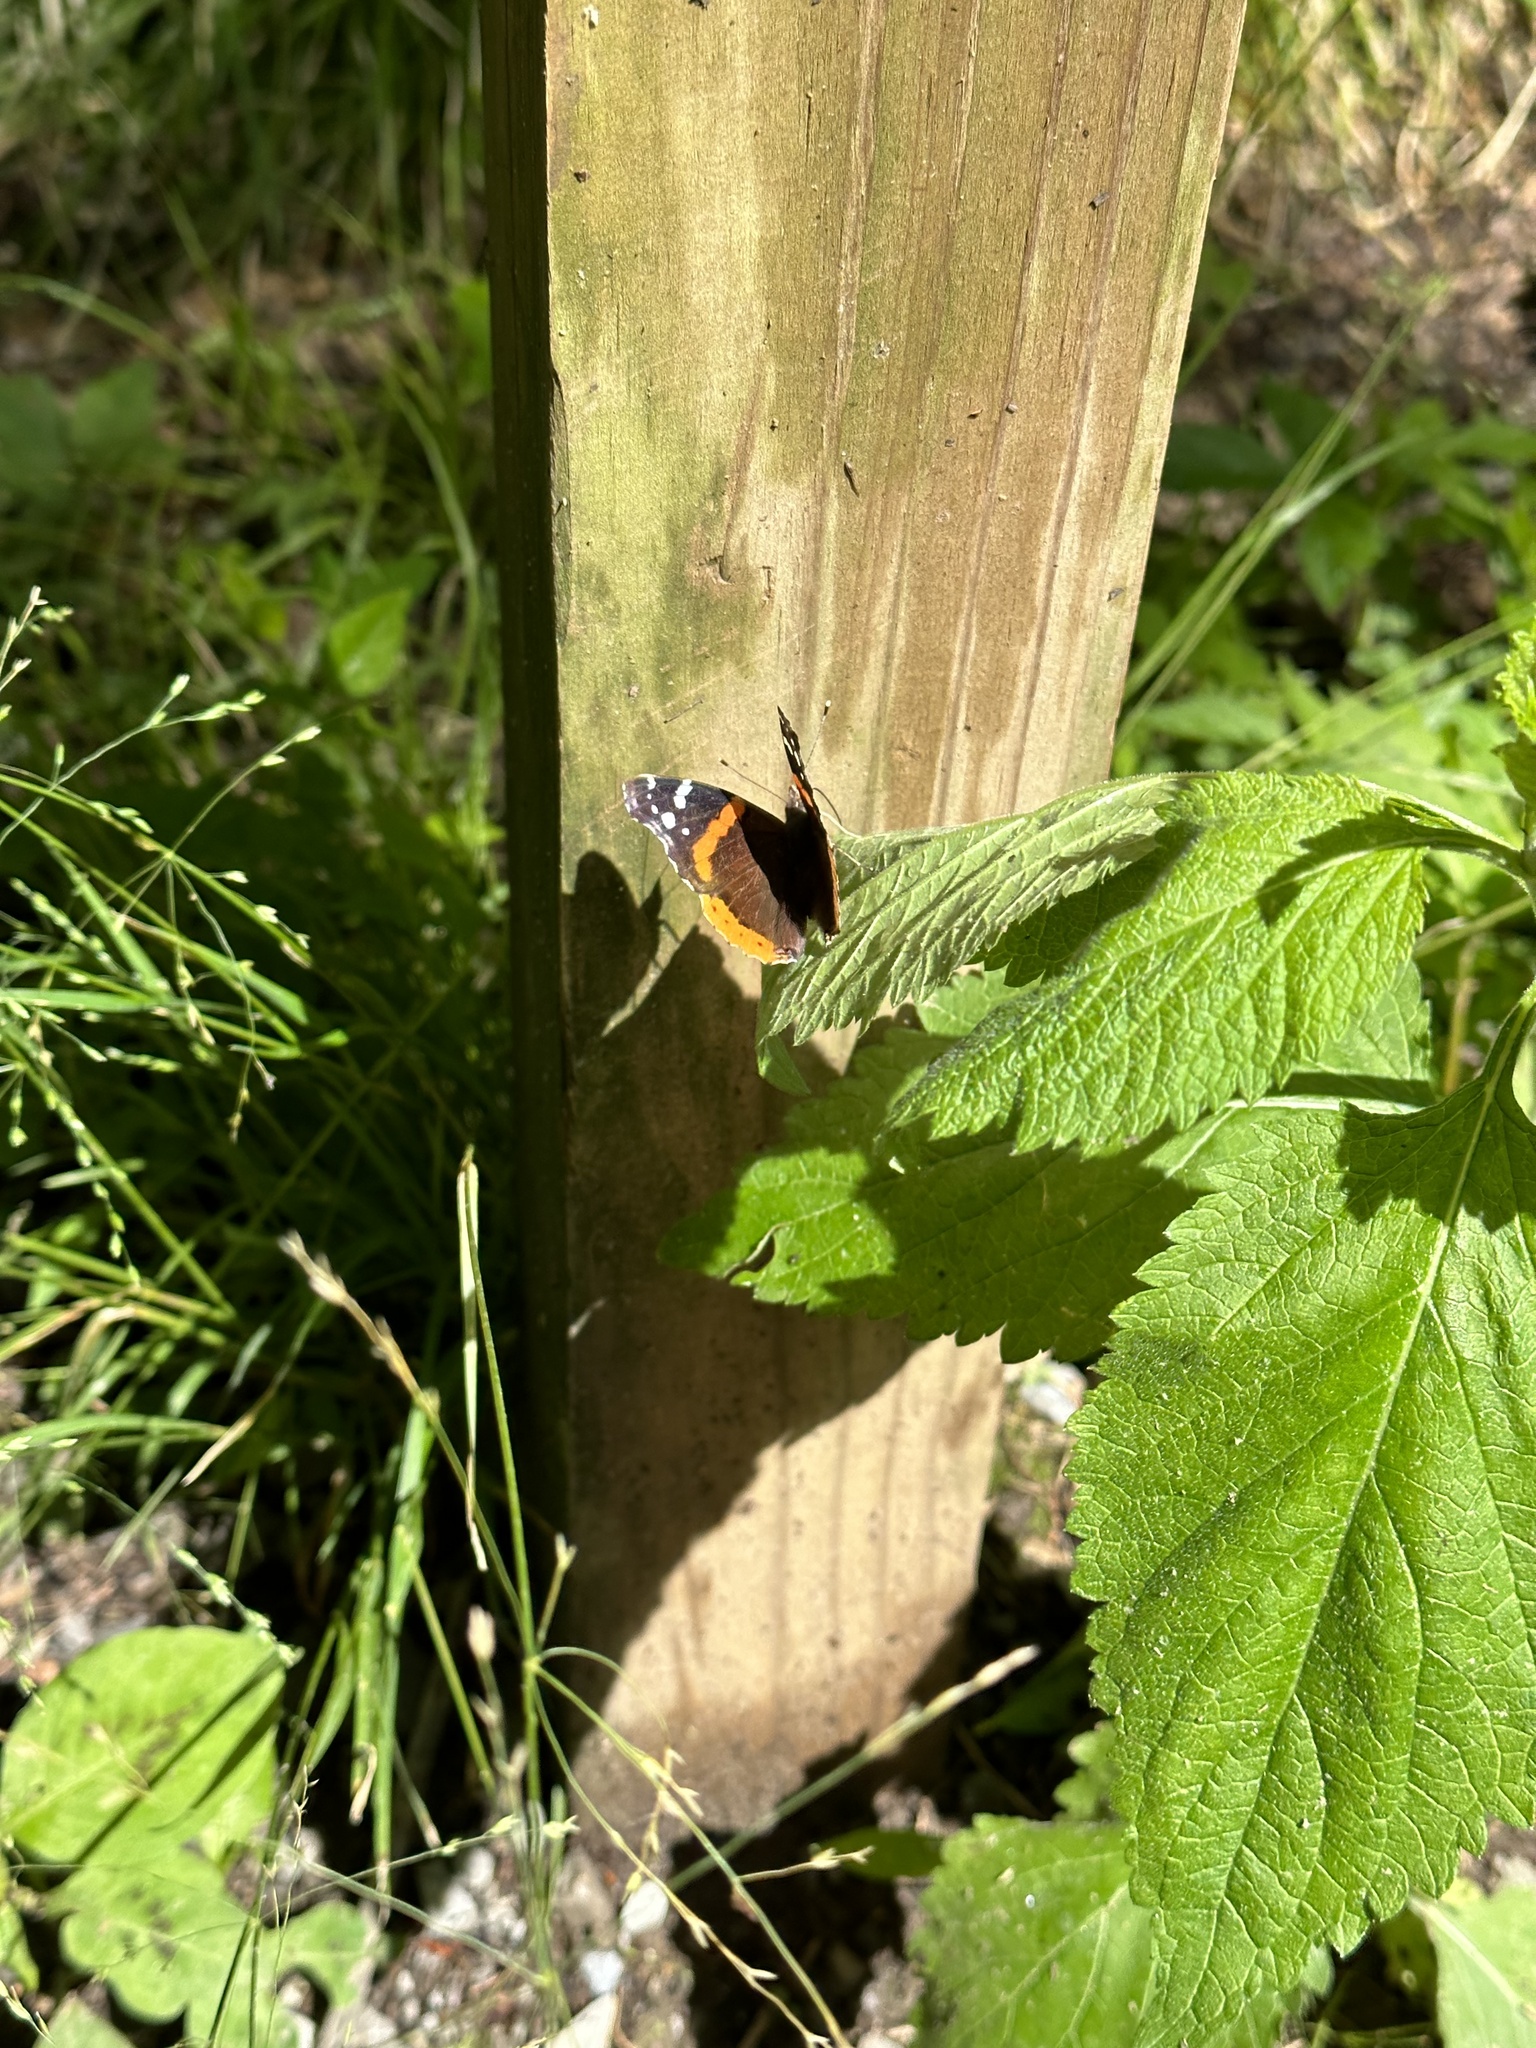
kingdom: Animalia
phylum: Arthropoda
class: Insecta
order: Lepidoptera
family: Nymphalidae
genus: Vanessa
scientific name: Vanessa atalanta
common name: Red admiral
